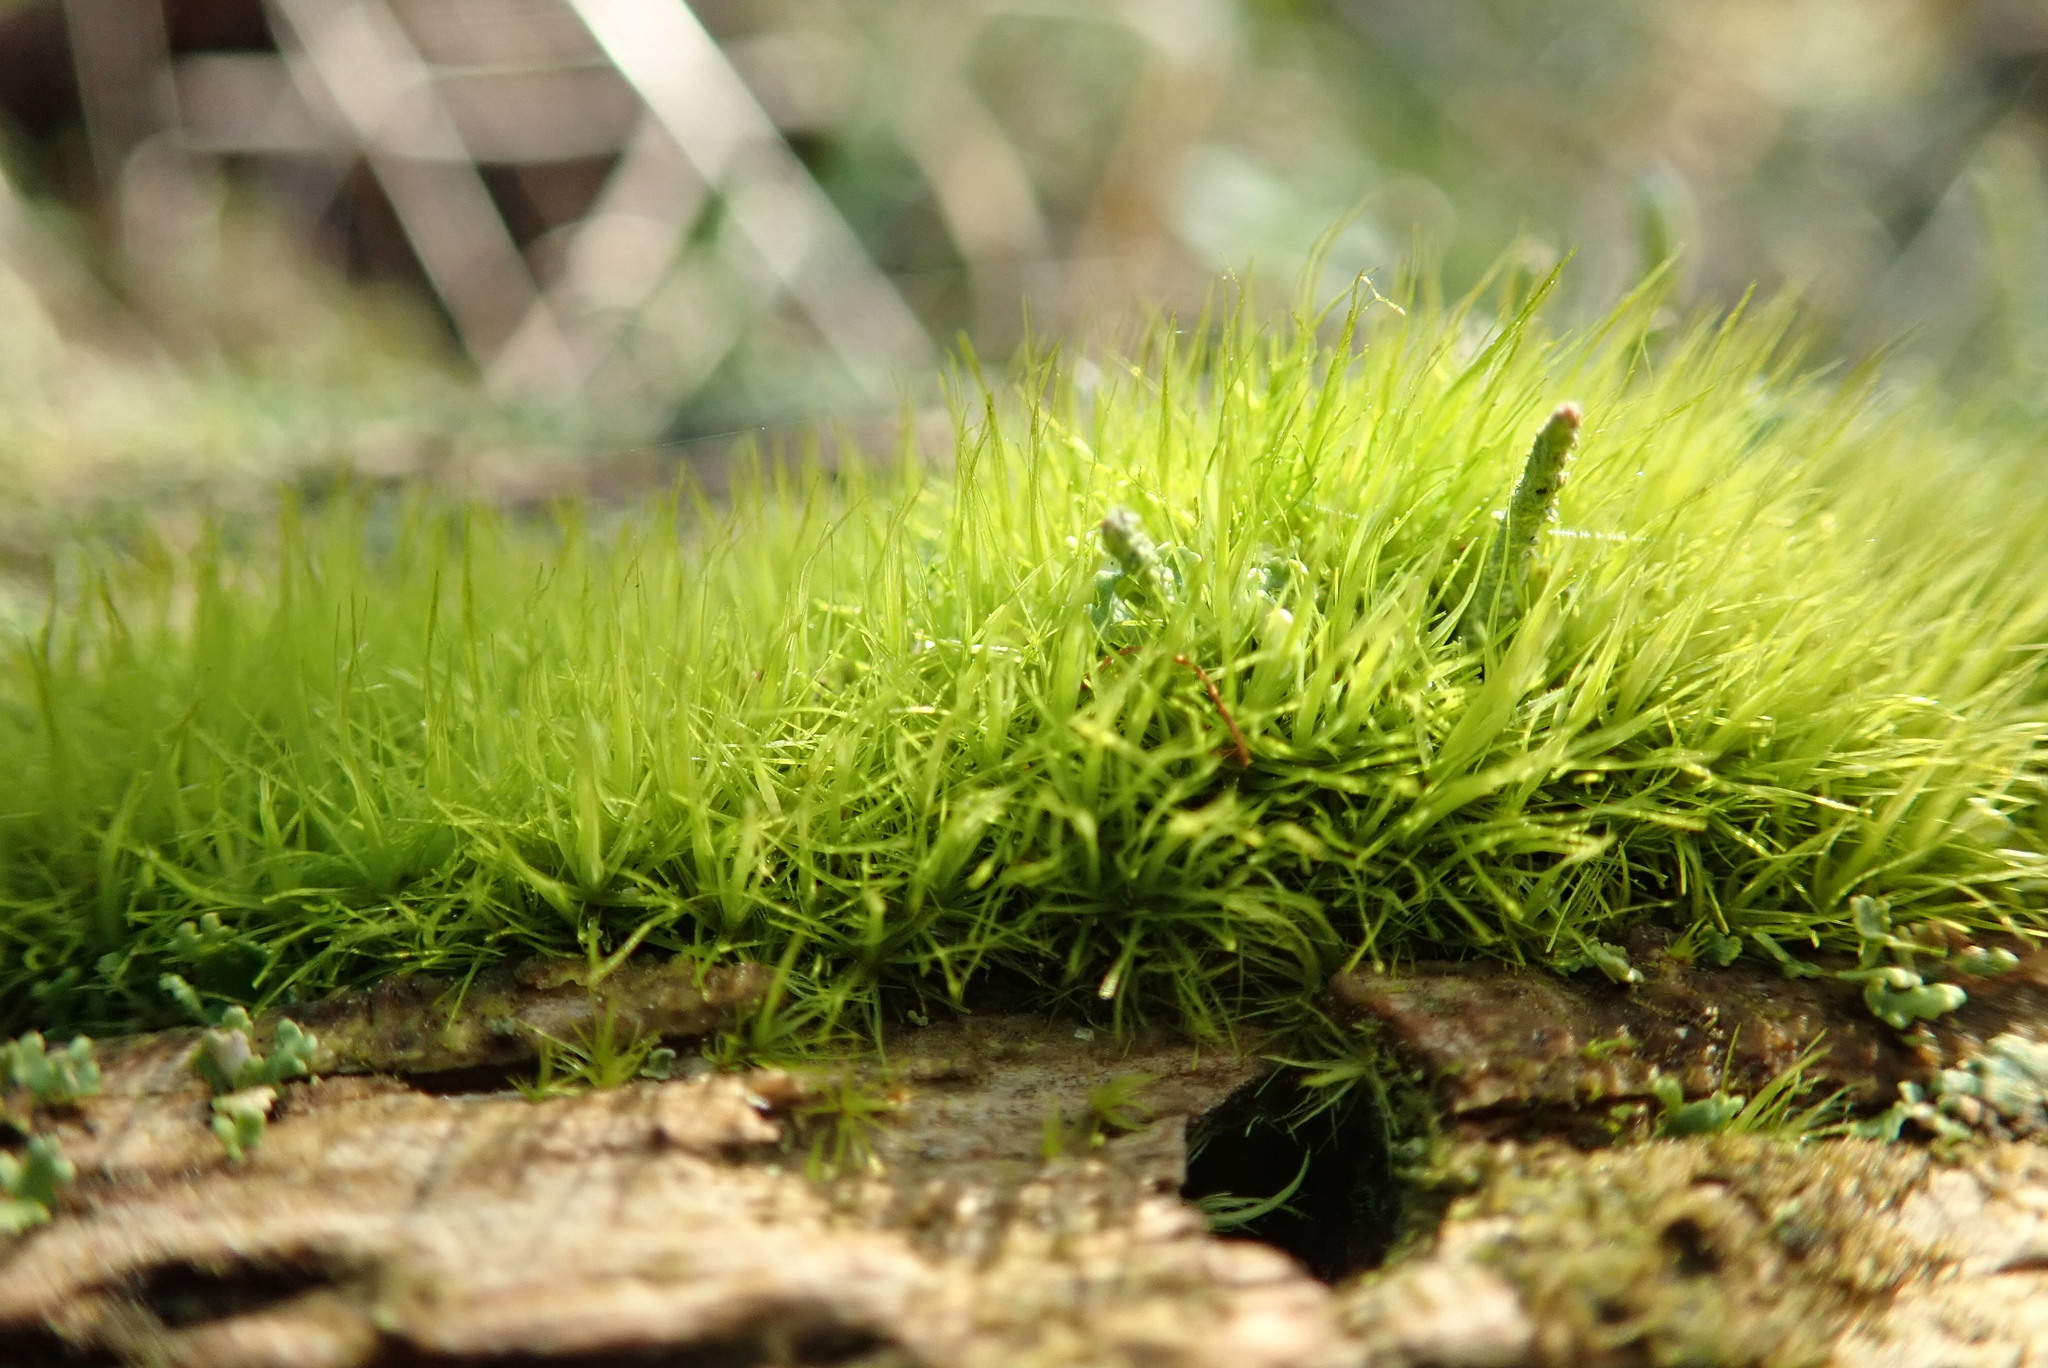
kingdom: Plantae
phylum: Bryophyta
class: Bryopsida
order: Dicranales
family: Rhabdoweisiaceae
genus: Dicranoweisia
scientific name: Dicranoweisia cirrata
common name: Common pincushion
